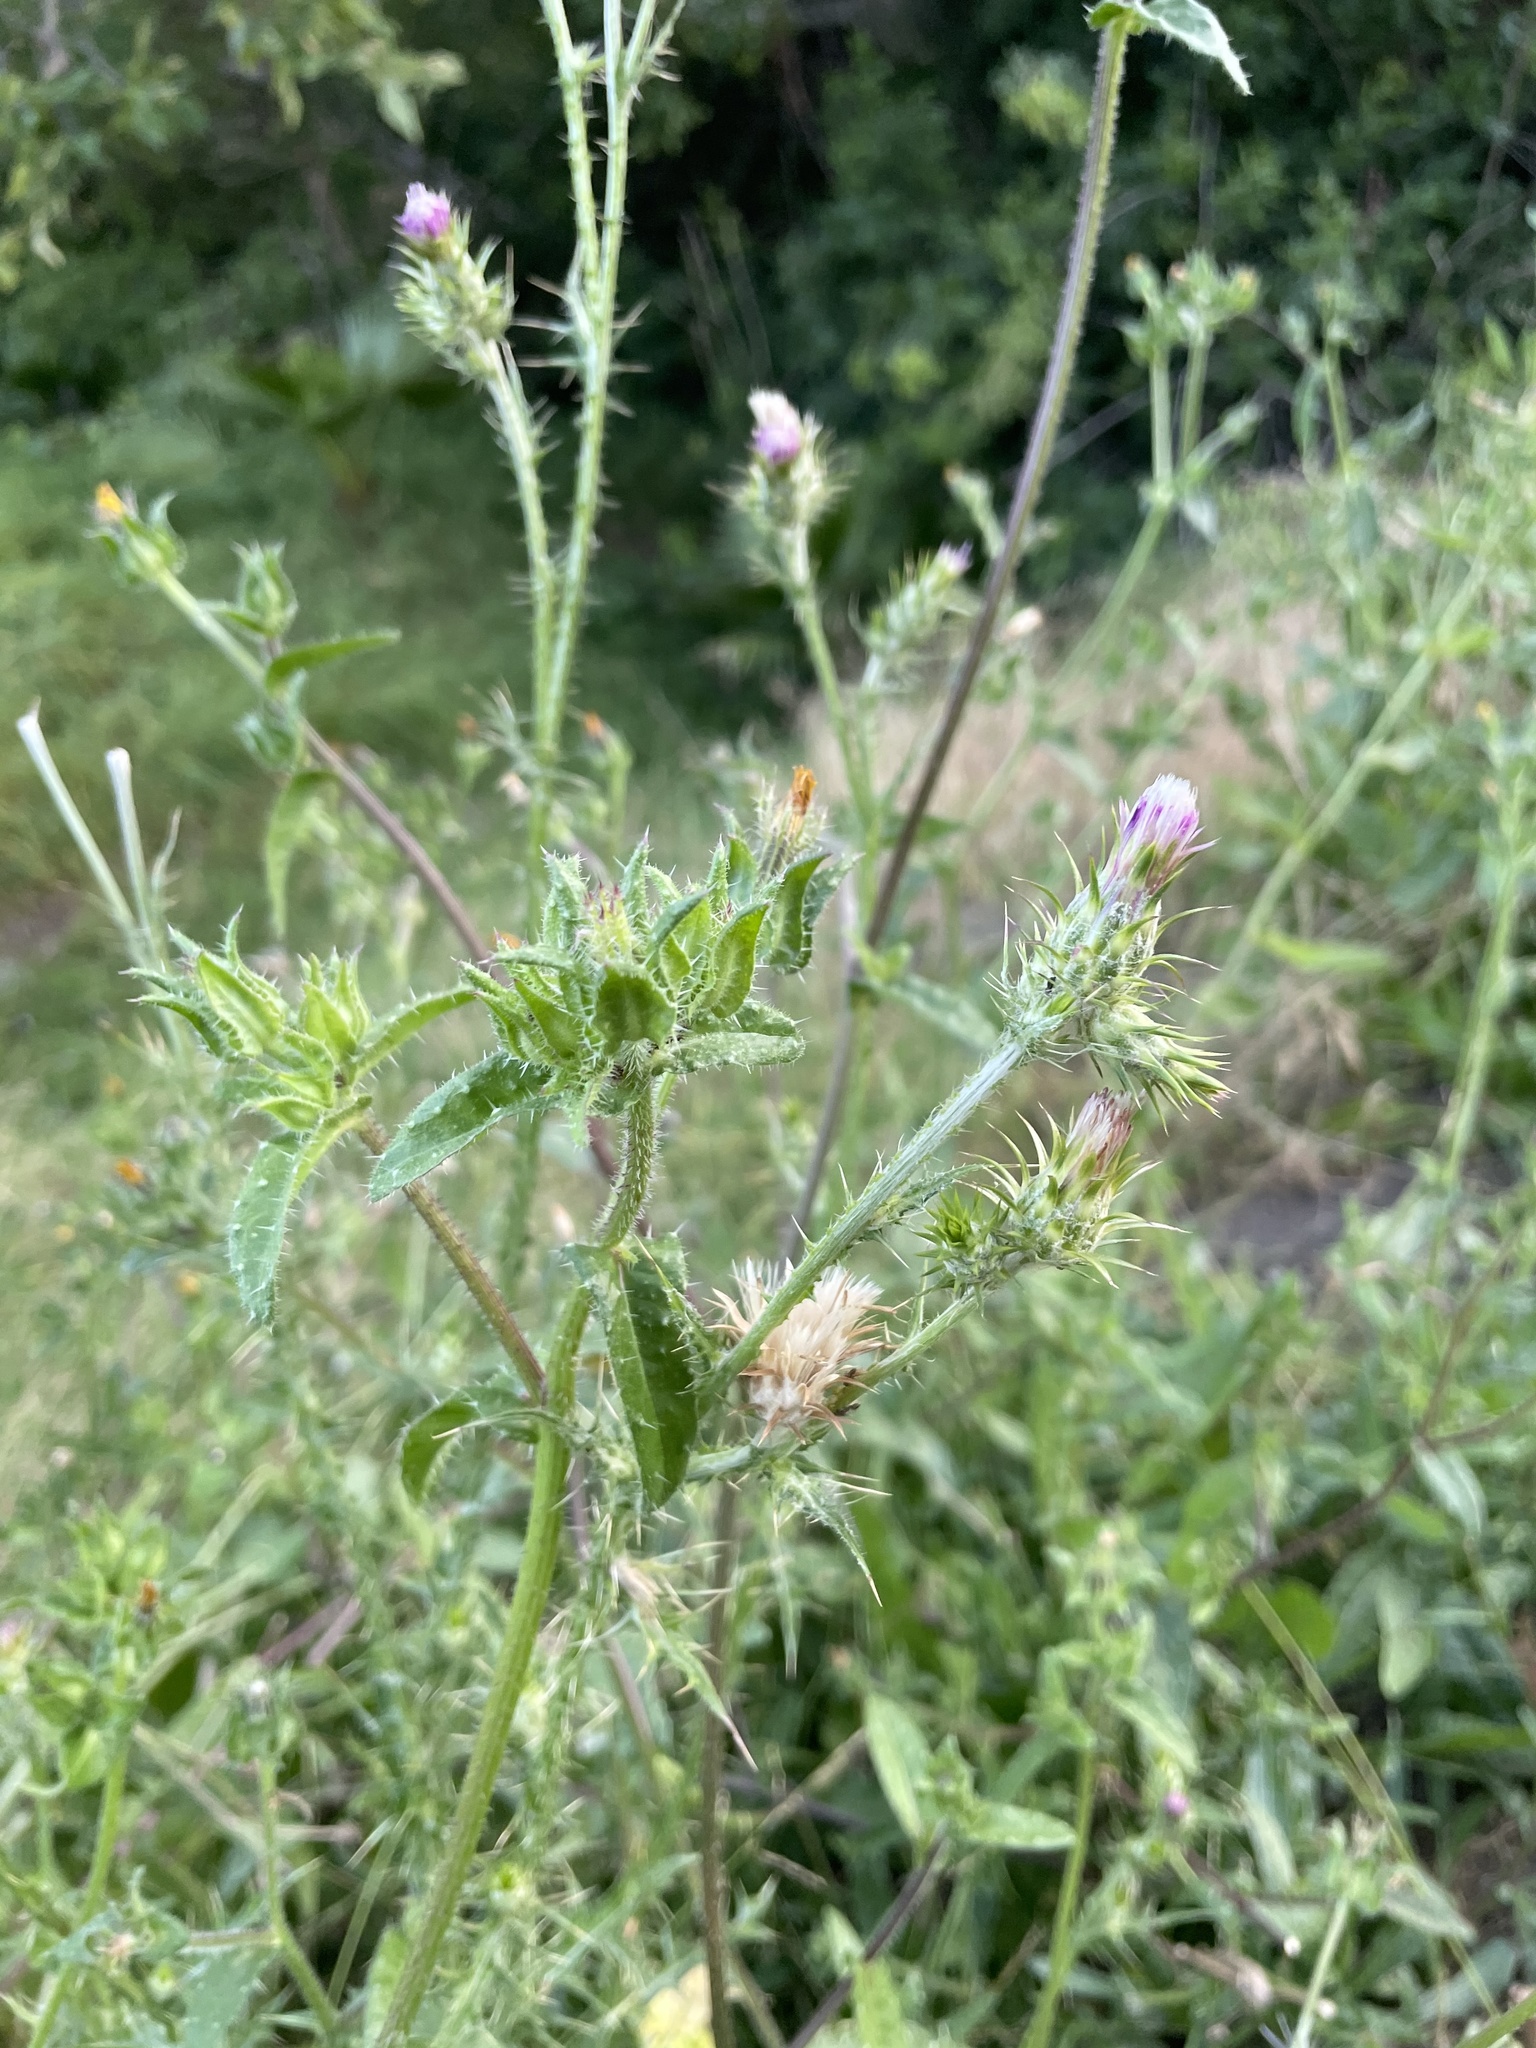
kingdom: Plantae
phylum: Tracheophyta
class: Magnoliopsida
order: Asterales
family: Asteraceae
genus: Carduus
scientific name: Carduus pycnocephalus
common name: Plymouth thistle
